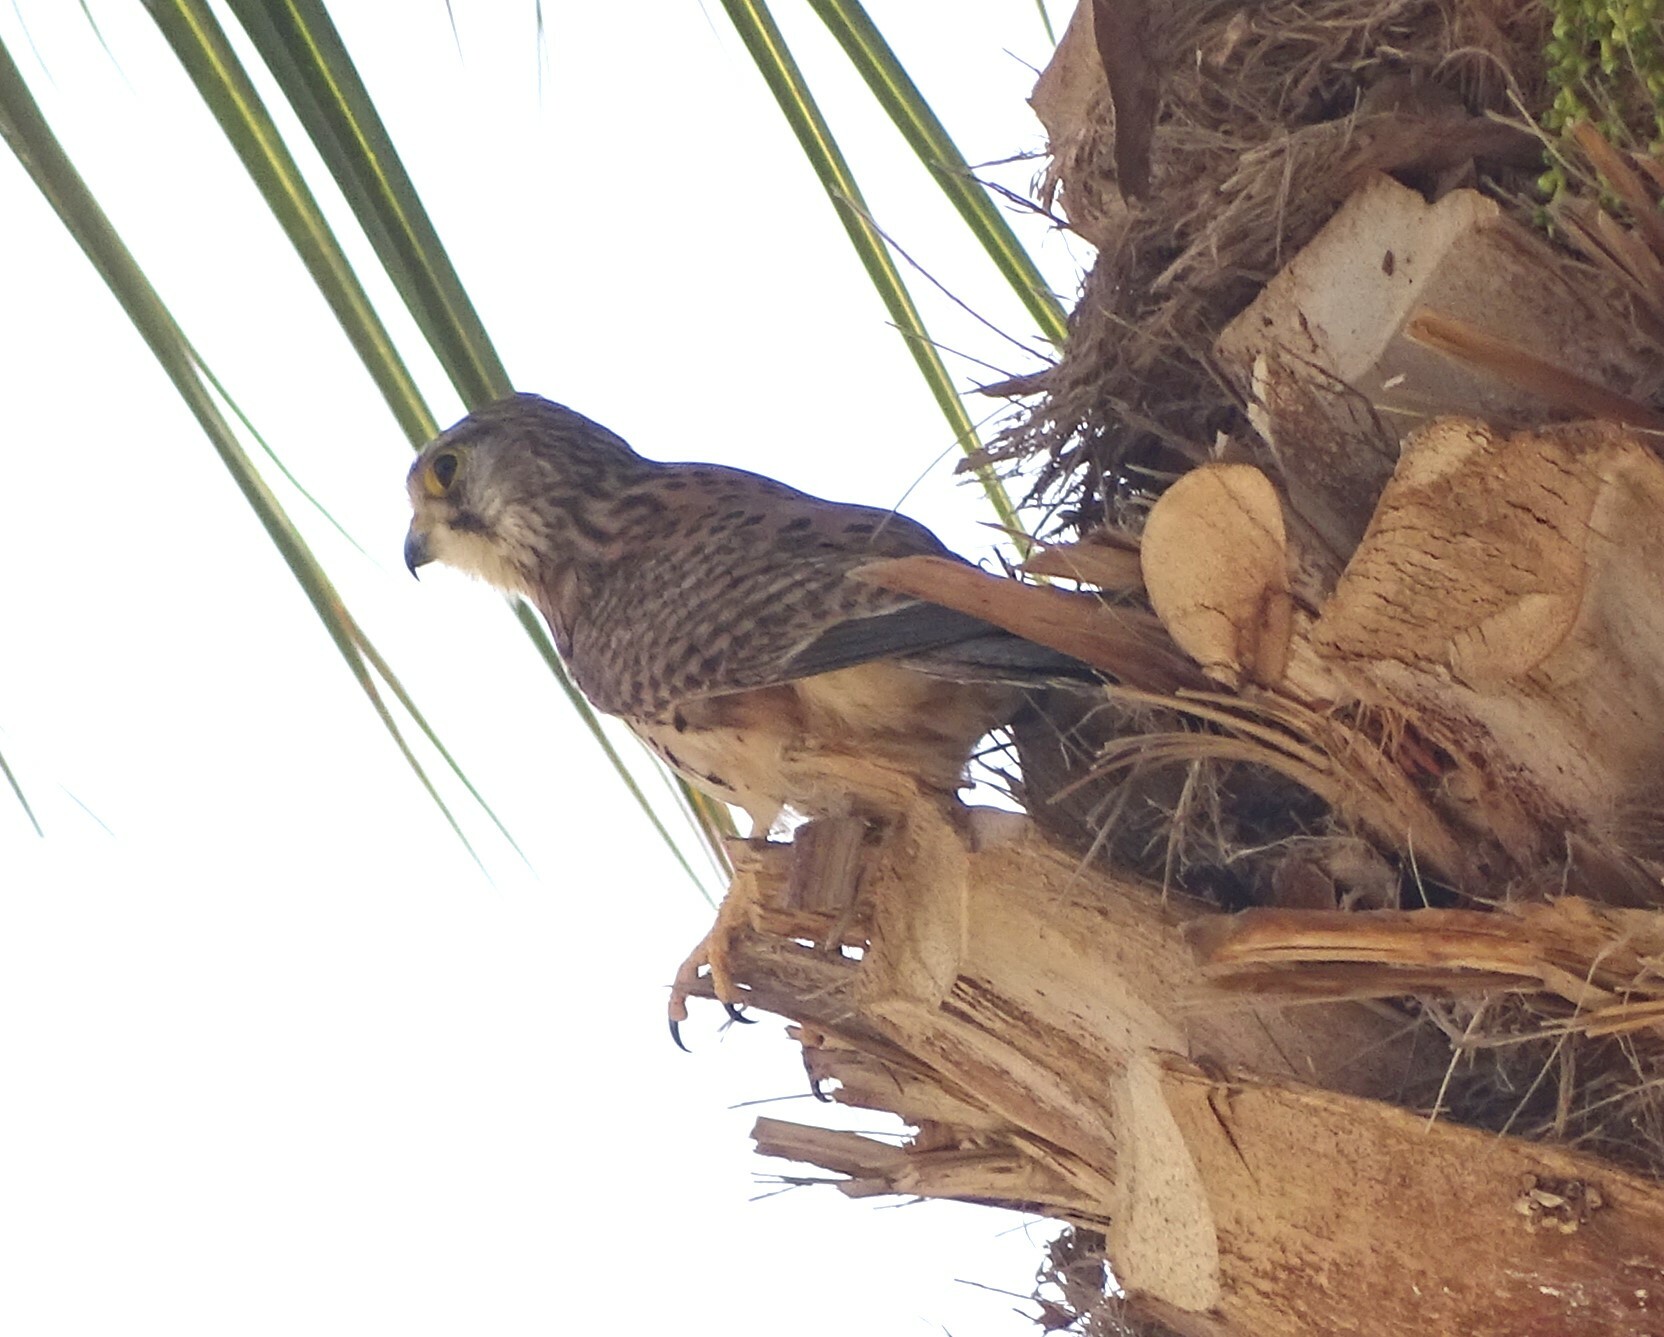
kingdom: Animalia
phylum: Chordata
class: Aves
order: Falconiformes
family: Falconidae
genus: Falco
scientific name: Falco tinnunculus
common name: Common kestrel
